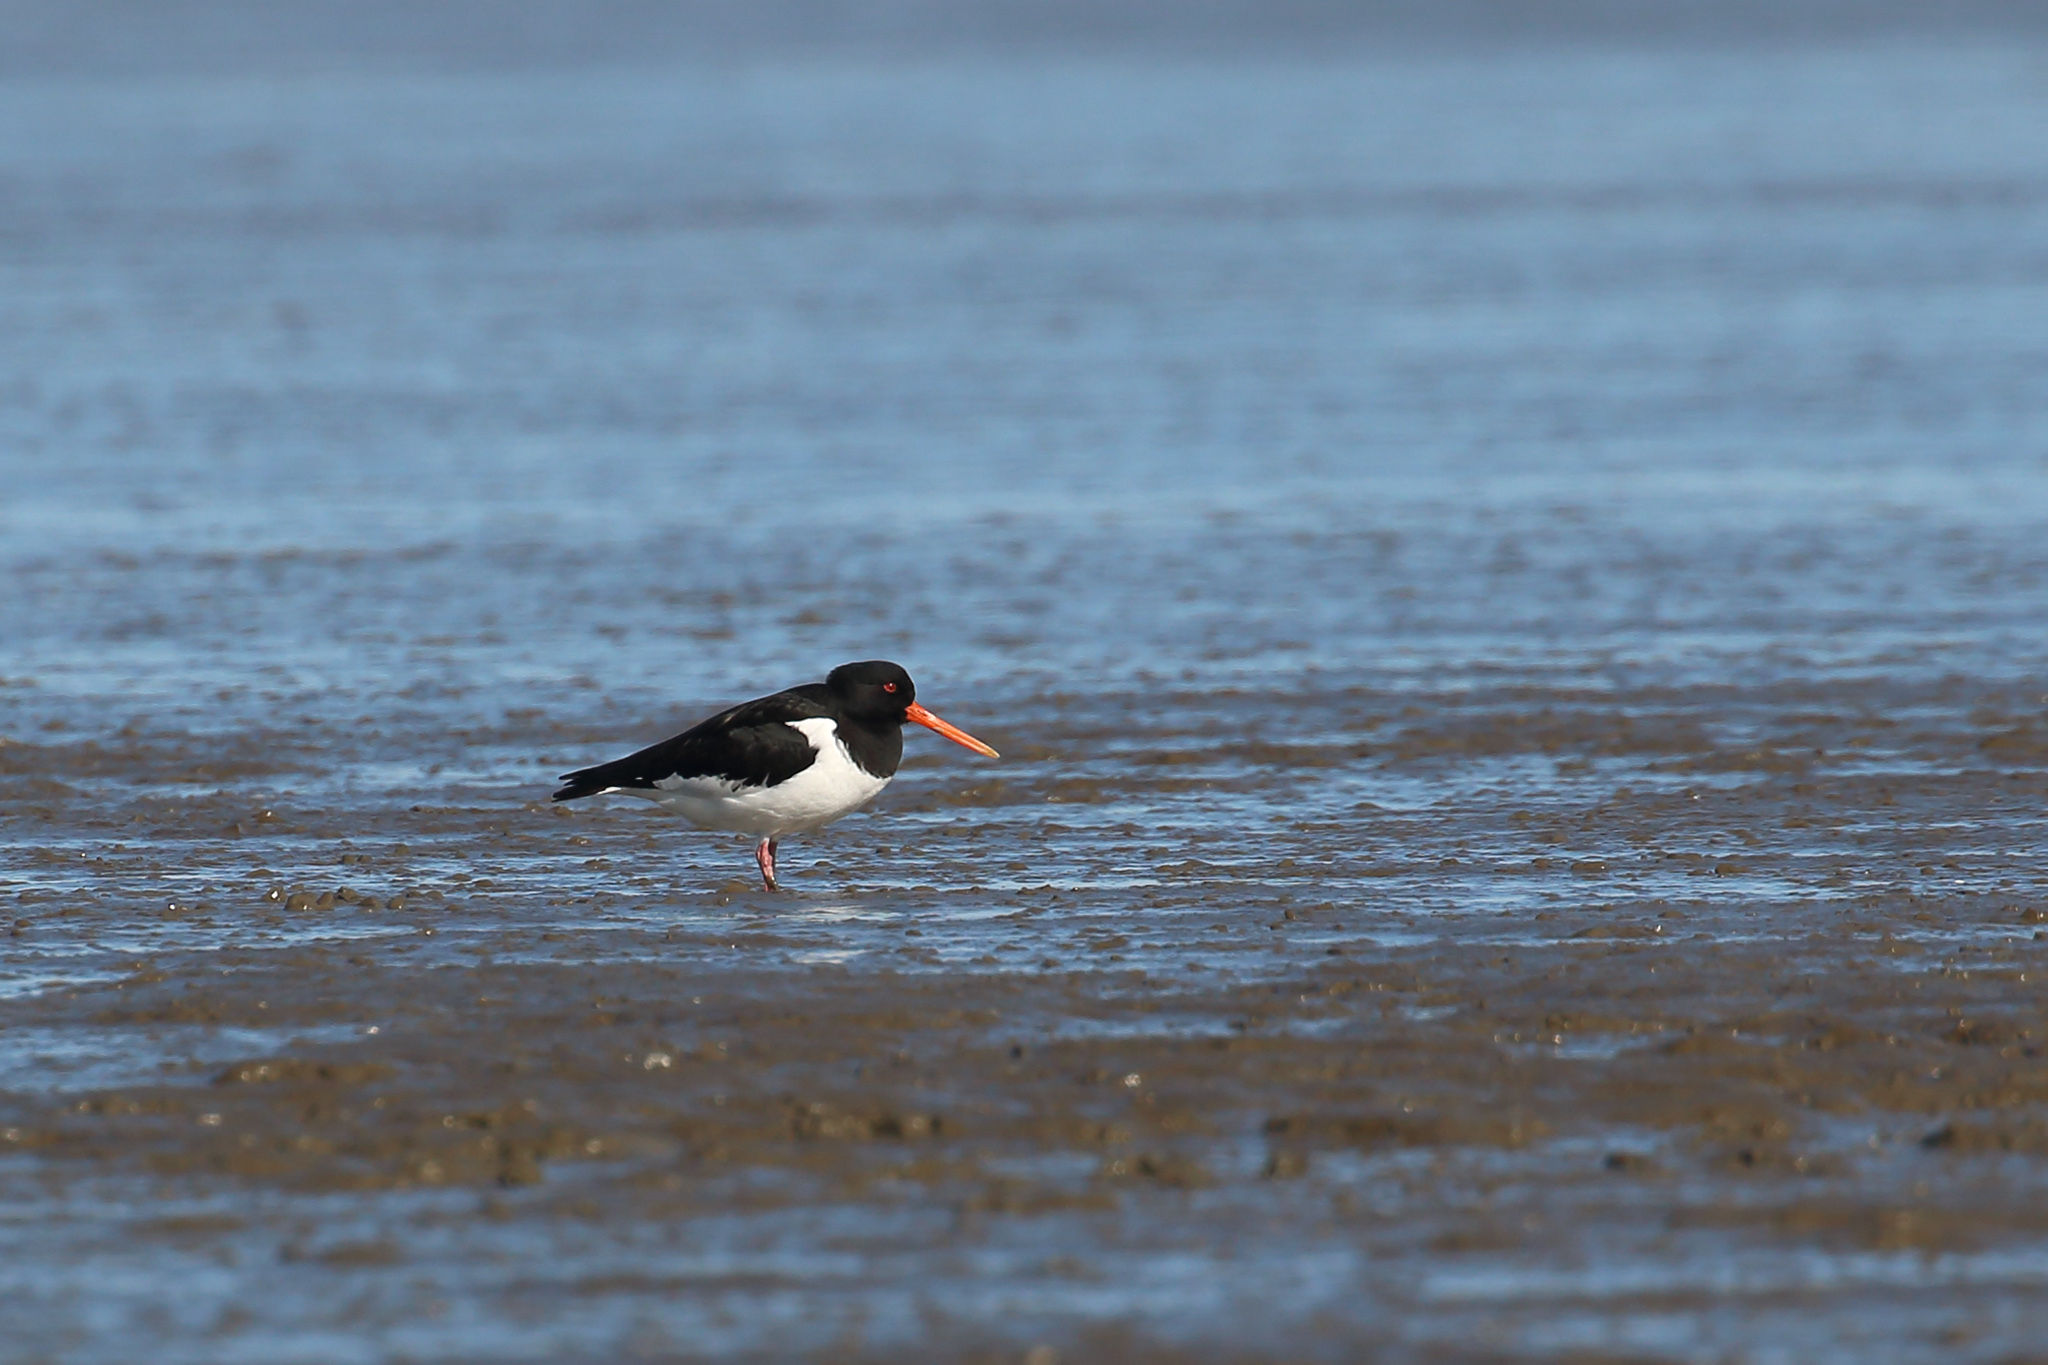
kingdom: Animalia
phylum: Chordata
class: Aves
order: Charadriiformes
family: Haematopodidae
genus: Haematopus
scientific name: Haematopus ostralegus
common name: Eurasian oystercatcher
